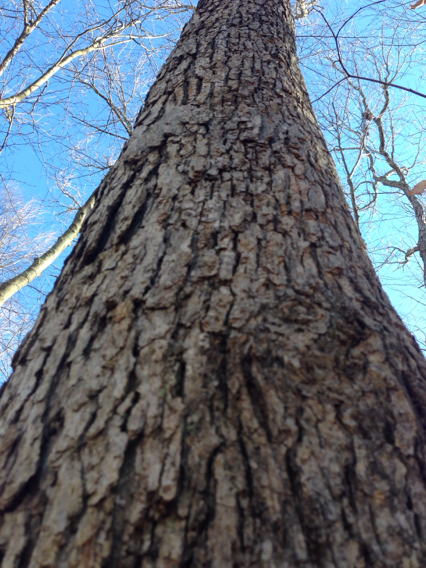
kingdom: Plantae
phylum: Tracheophyta
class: Magnoliopsida
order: Fagales
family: Fagaceae
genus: Quercus
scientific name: Quercus alba
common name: White oak
